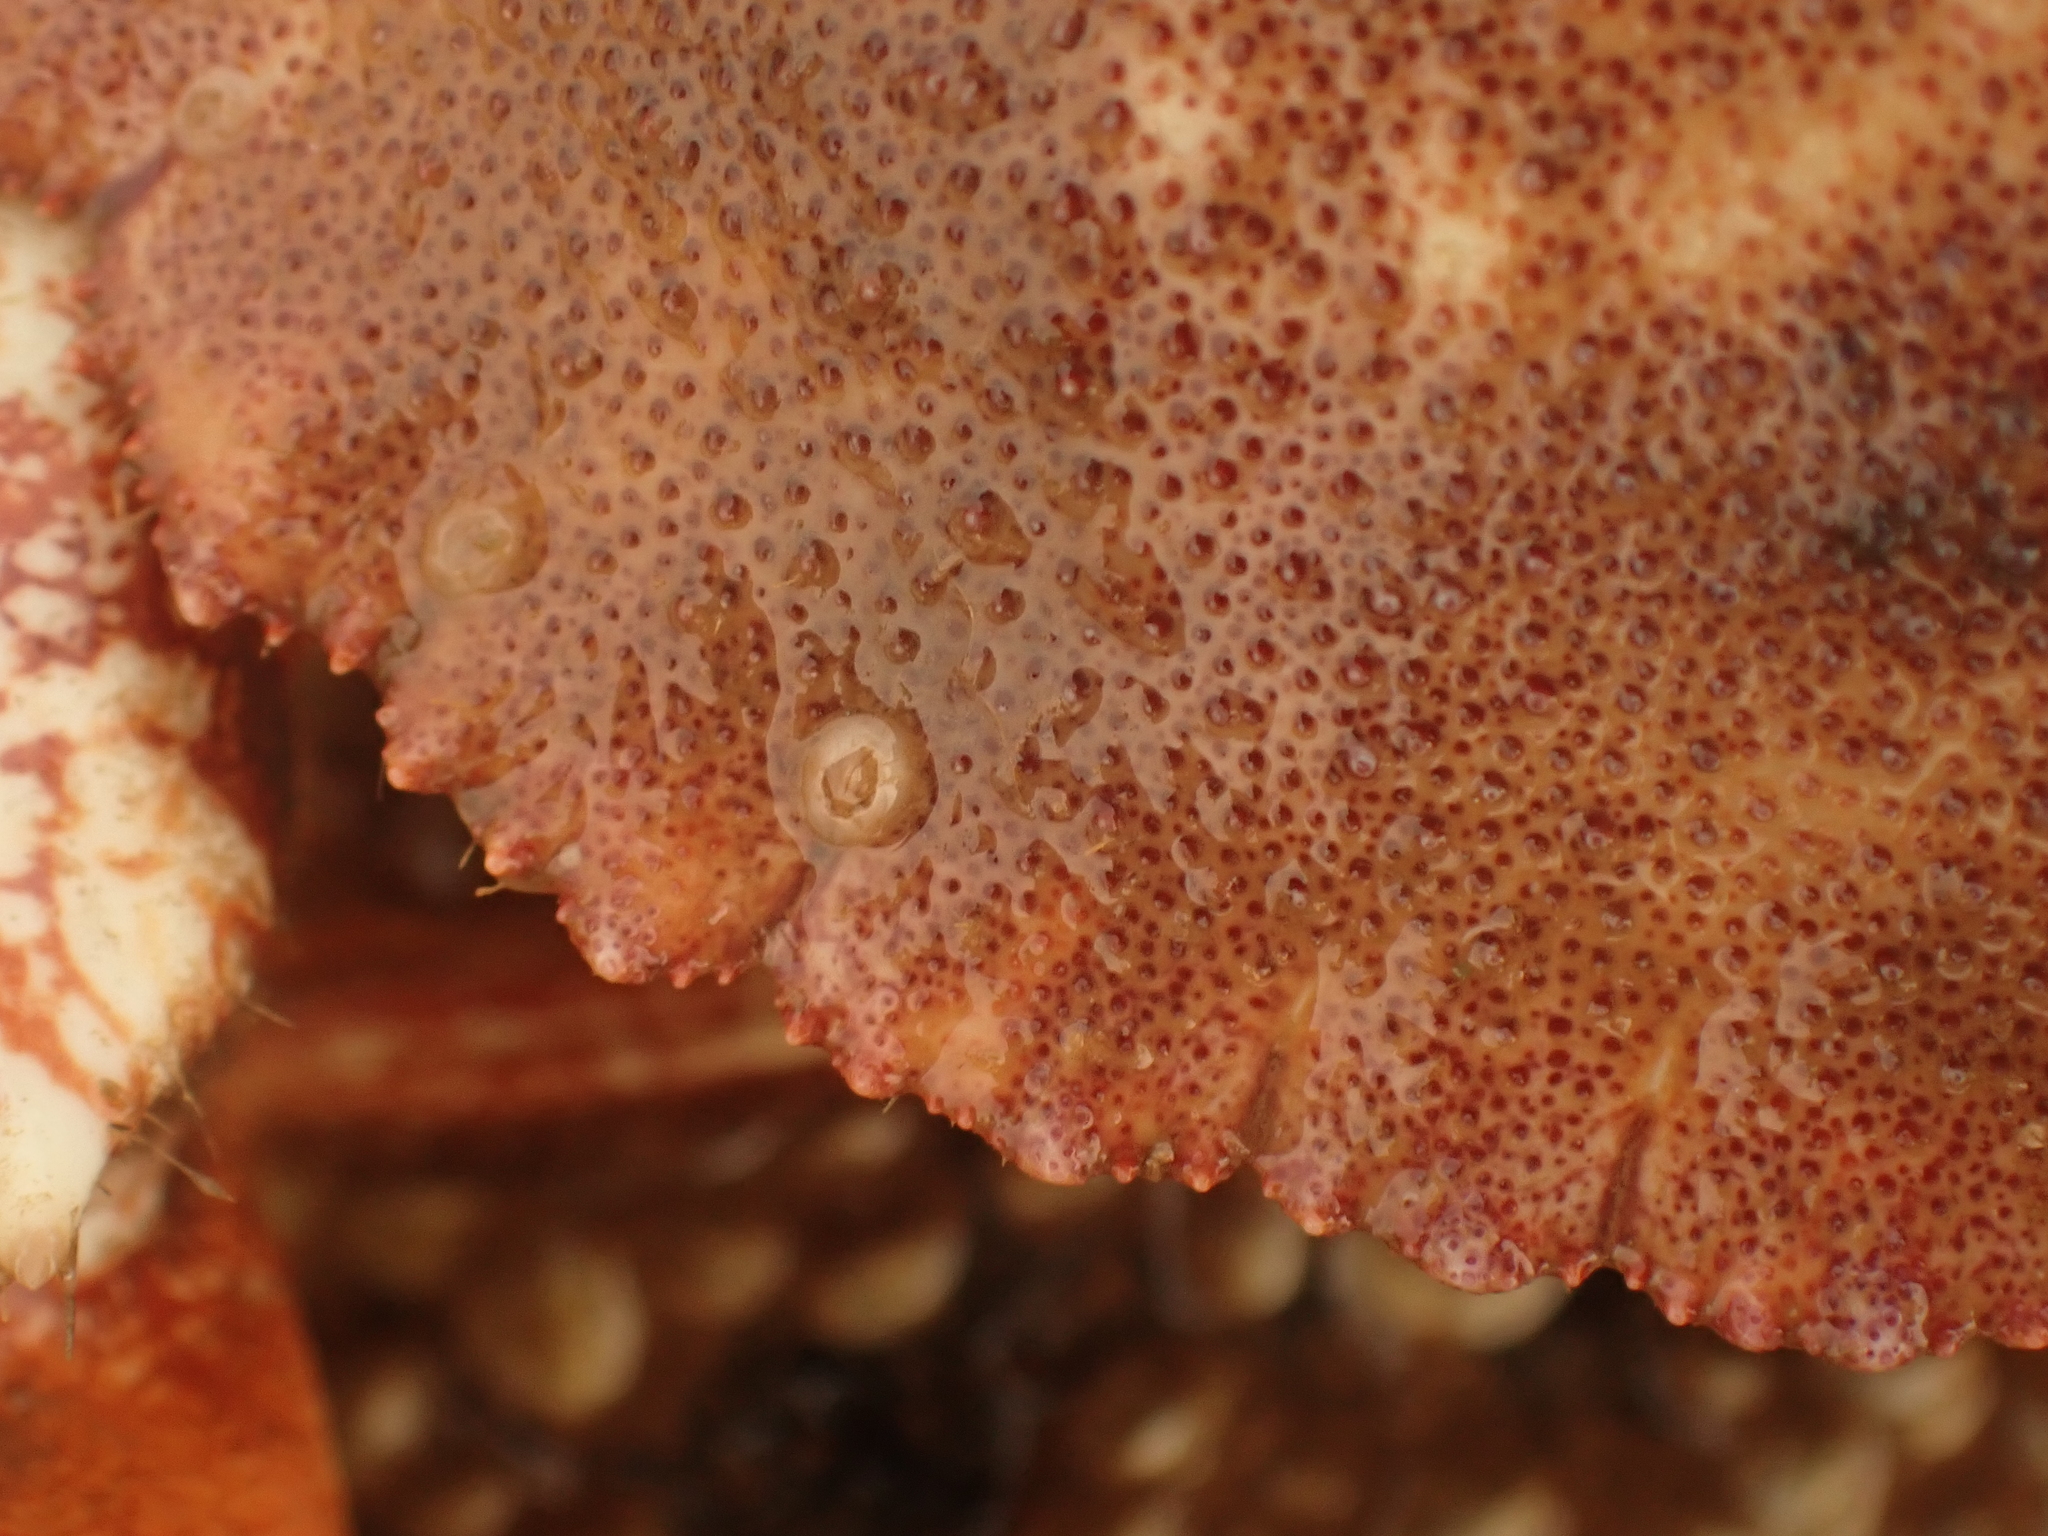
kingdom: Animalia
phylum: Arthropoda
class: Malacostraca
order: Decapoda
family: Cancridae
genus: Cancer
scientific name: Cancer borealis
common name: Jonah crab
